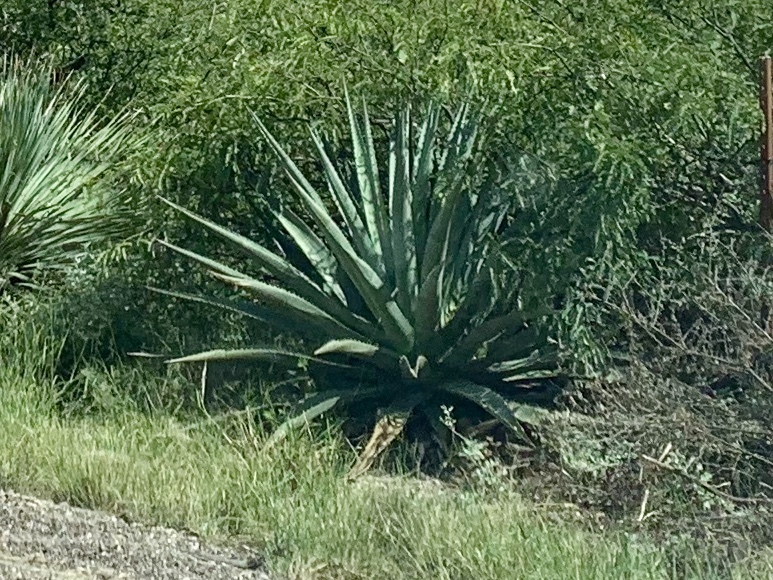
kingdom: Plantae
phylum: Tracheophyta
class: Liliopsida
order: Asparagales
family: Asparagaceae
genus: Agave
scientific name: Agave palmeri
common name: Palmer agave
